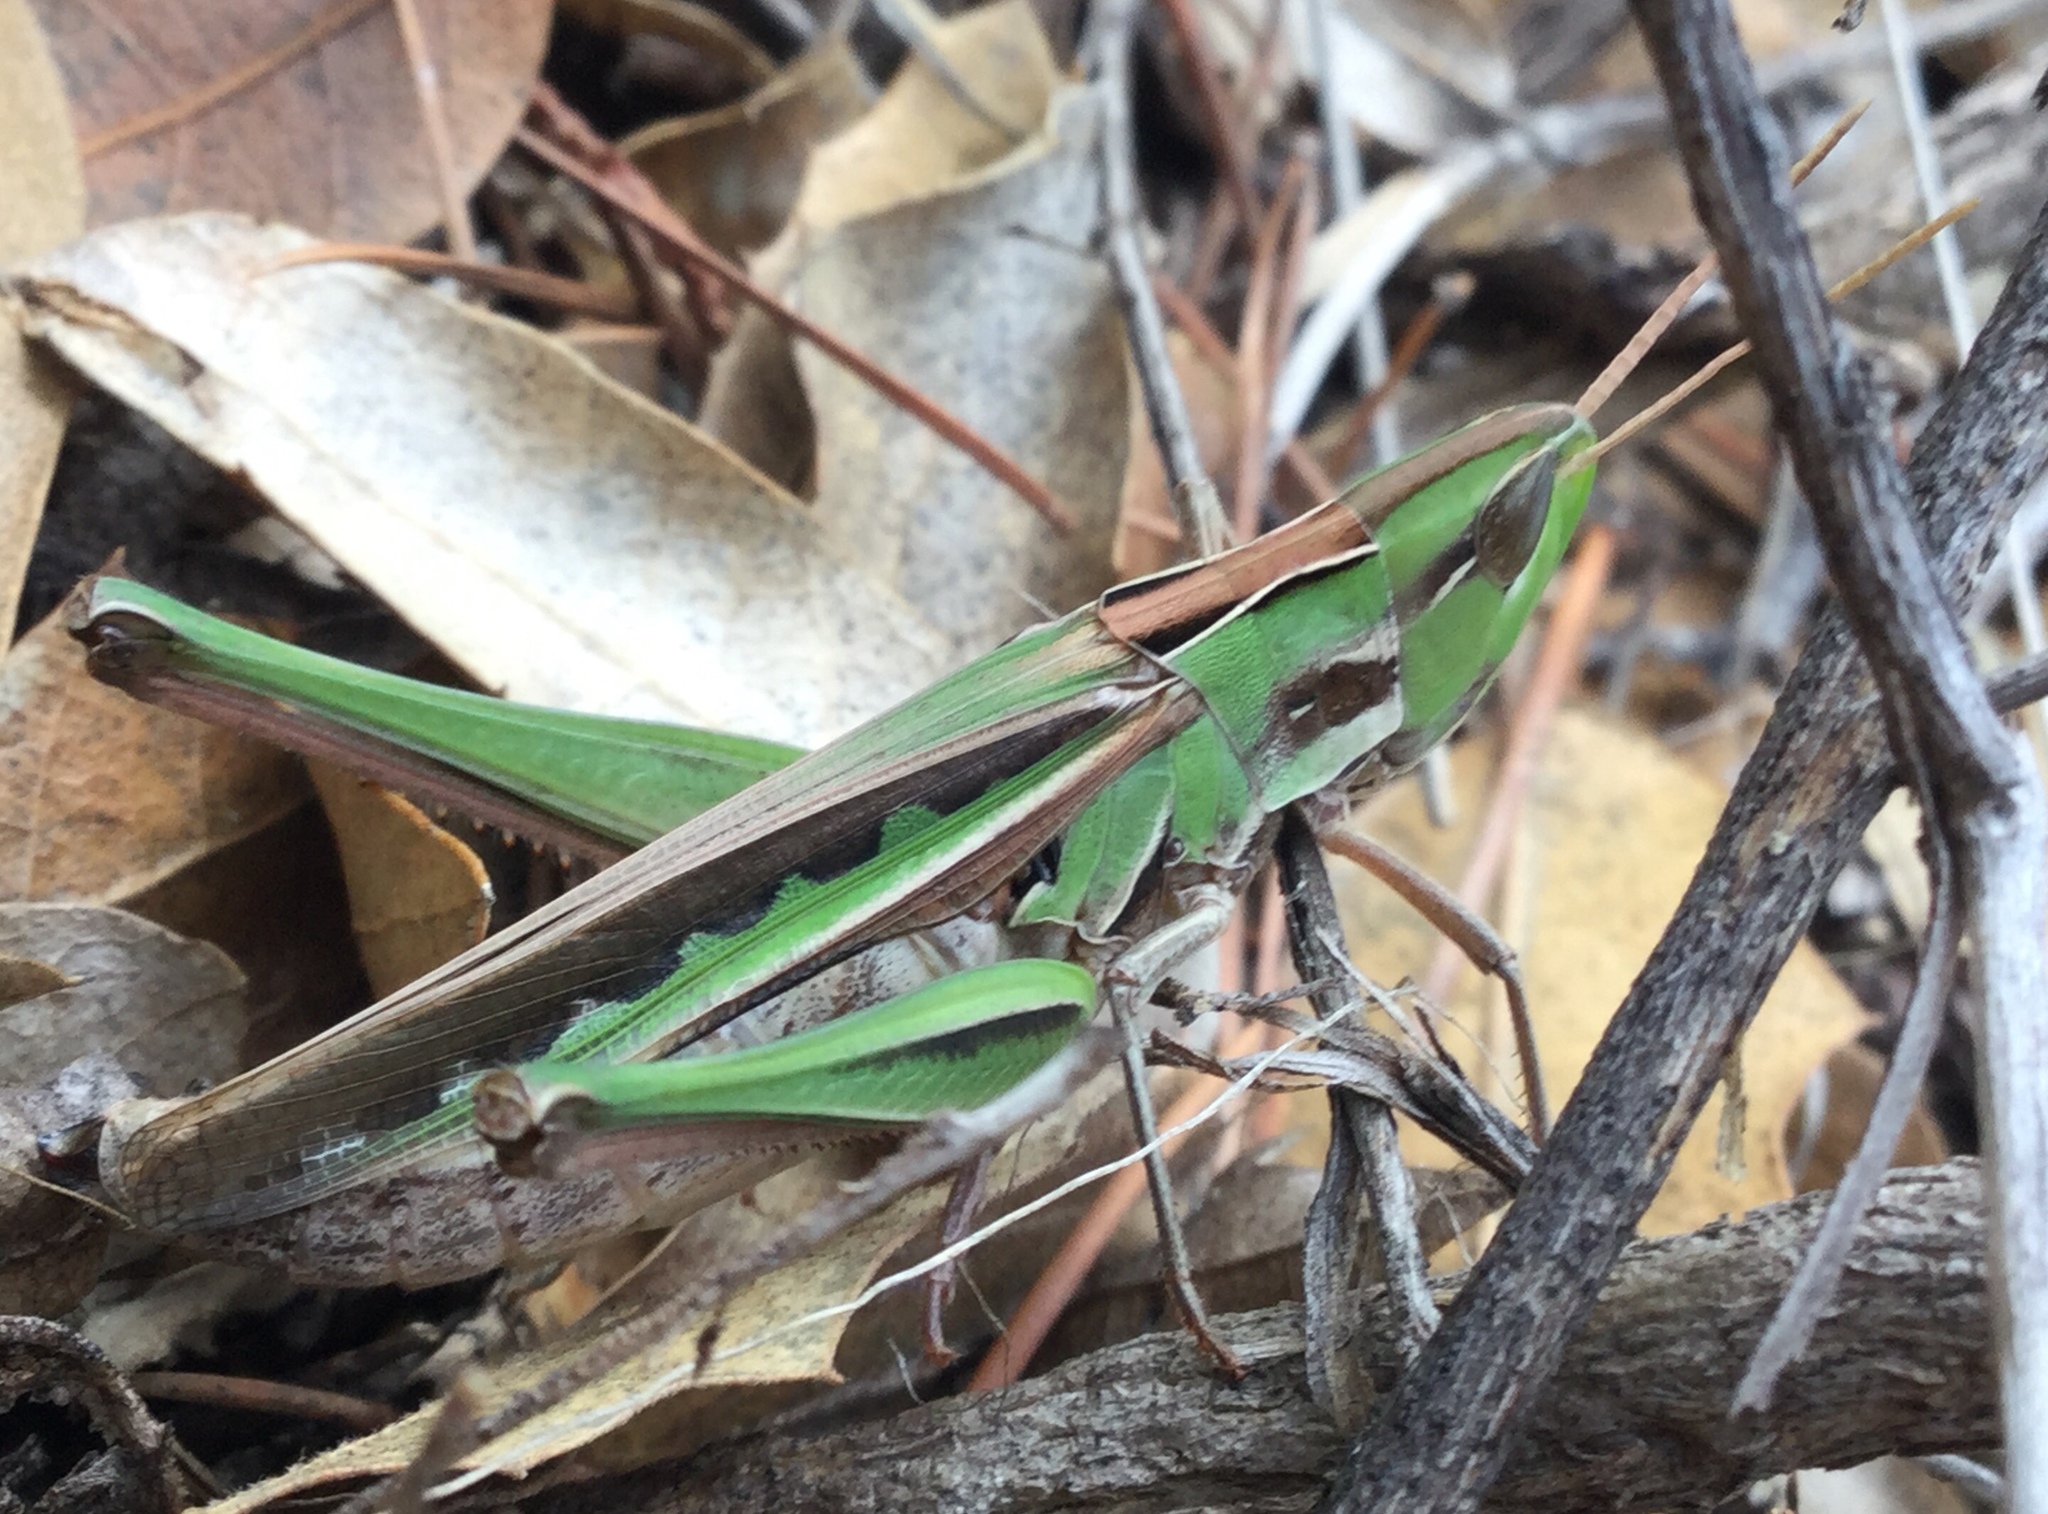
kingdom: Animalia
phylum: Arthropoda
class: Insecta
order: Orthoptera
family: Acrididae
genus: Syrbula
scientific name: Syrbula montezuma
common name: Montezuma's grasshopper
